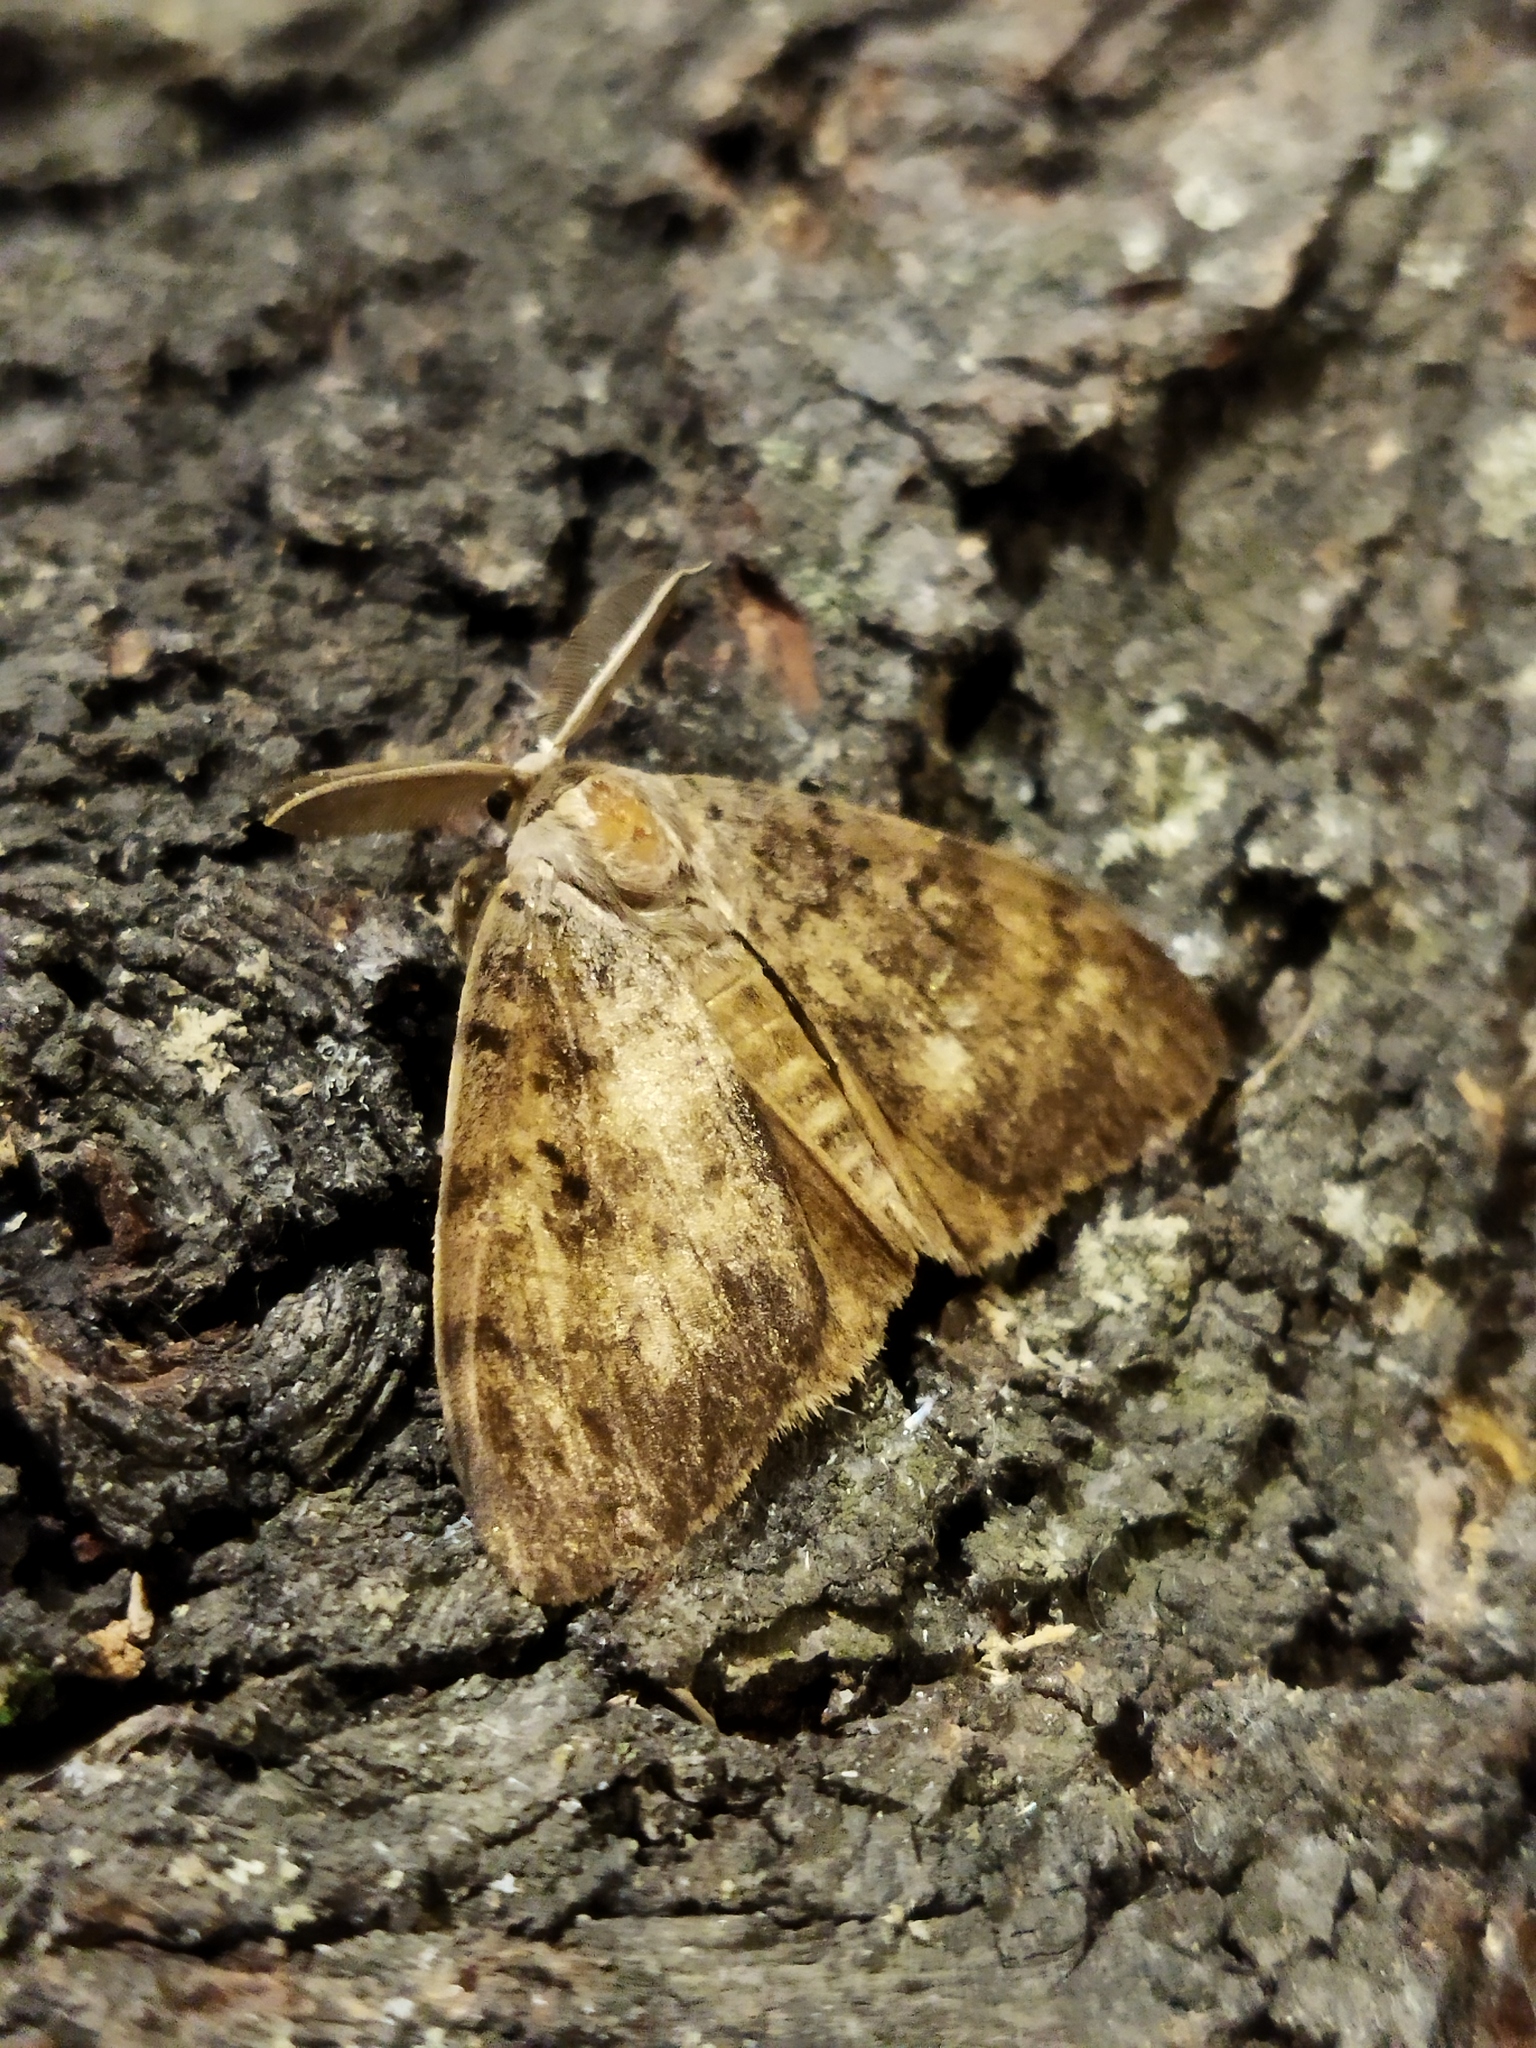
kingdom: Animalia
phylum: Arthropoda
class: Insecta
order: Lepidoptera
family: Erebidae
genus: Lymantria
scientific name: Lymantria dispar
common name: Gypsy moth
